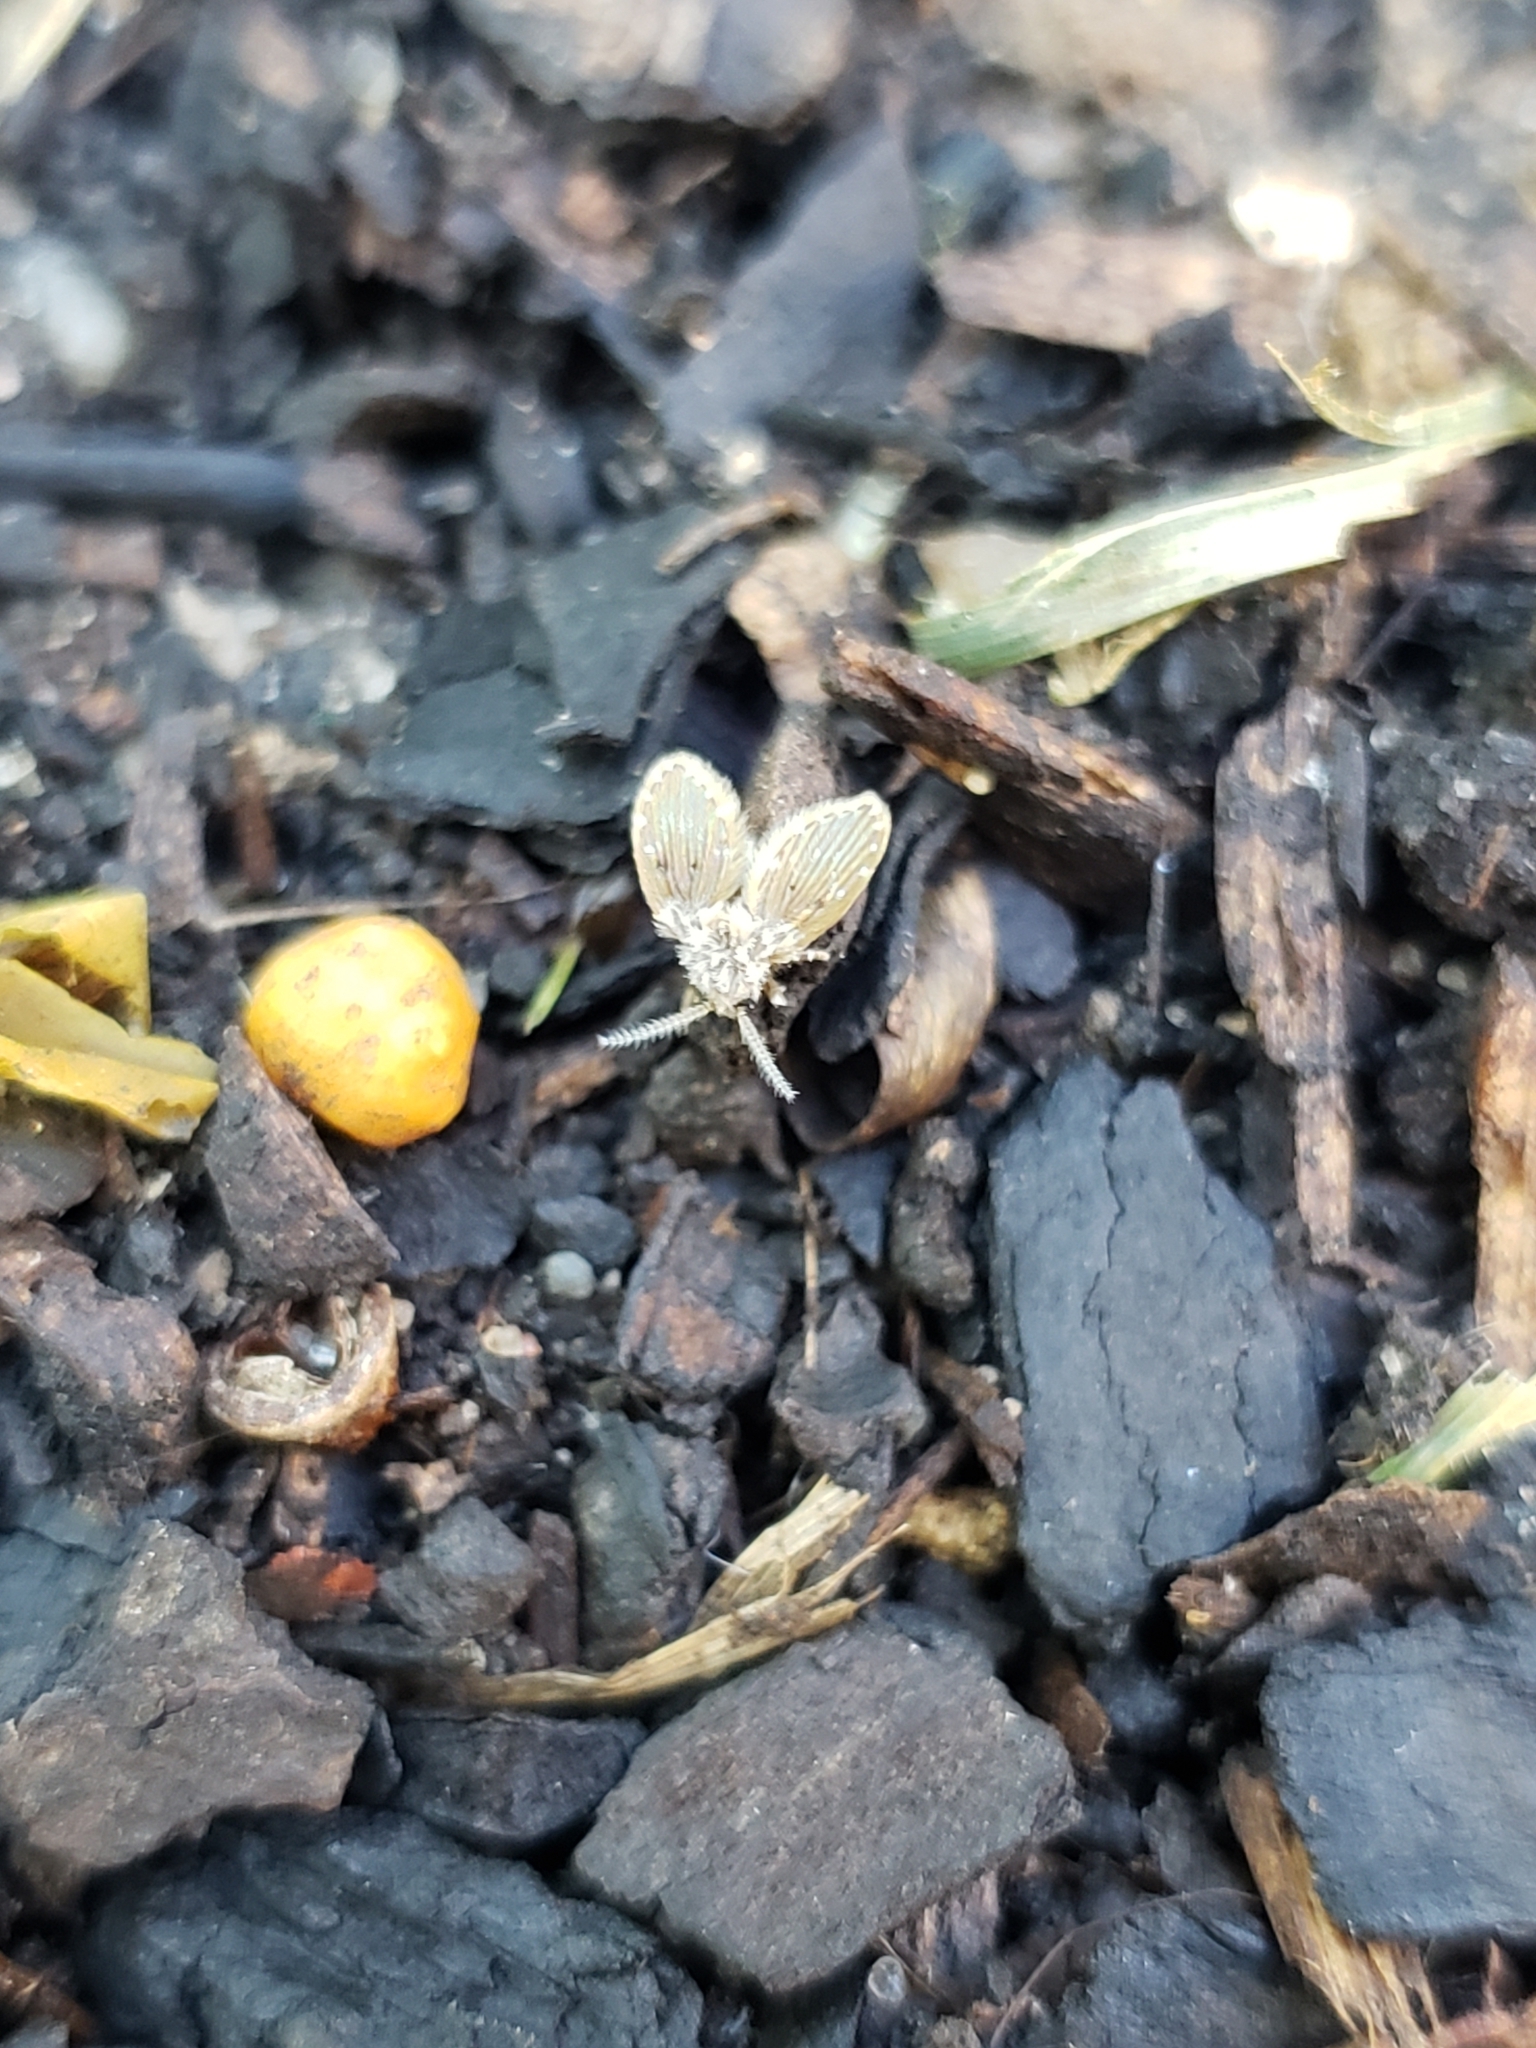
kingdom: Animalia
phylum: Arthropoda
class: Insecta
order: Diptera
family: Psychodidae
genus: Clogmia
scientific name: Clogmia albipunctatus
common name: White-spotted moth fly
